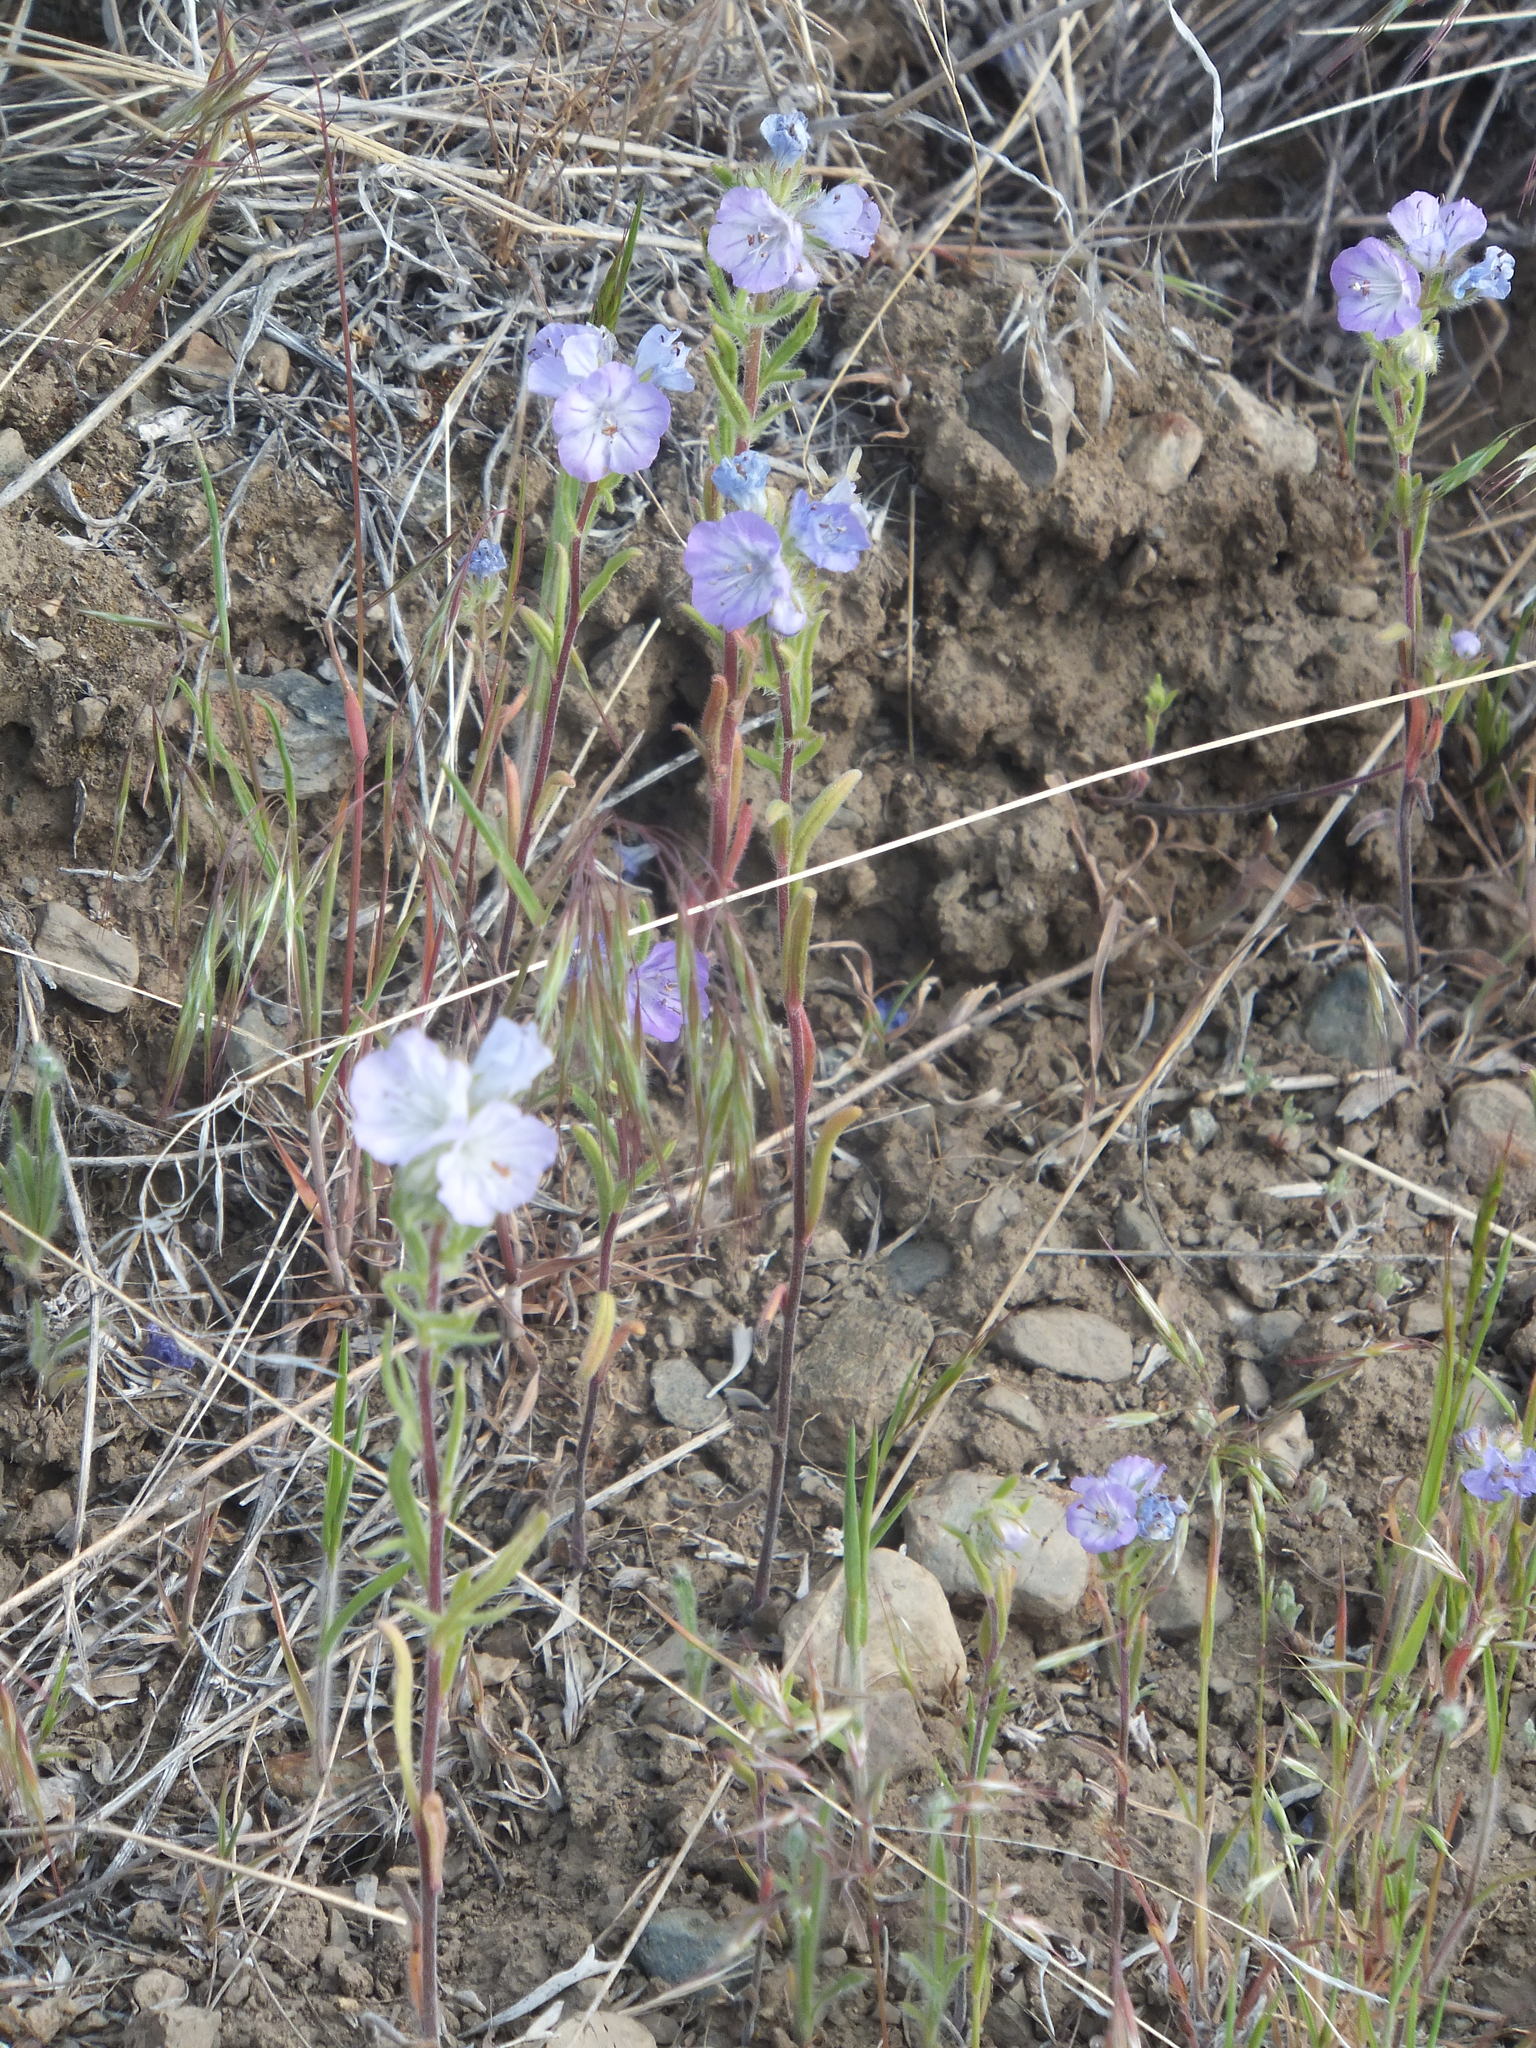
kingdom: Plantae
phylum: Tracheophyta
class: Magnoliopsida
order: Boraginales
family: Hydrophyllaceae
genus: Phacelia
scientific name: Phacelia linearis
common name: Linear-leaved phacelia
